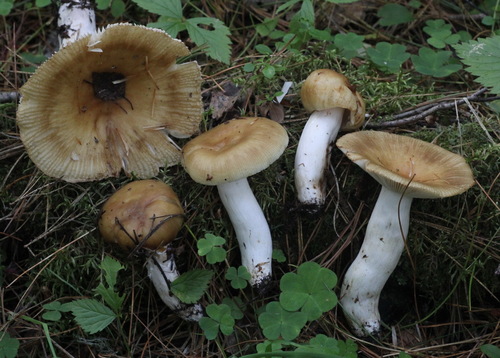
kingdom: Fungi
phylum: Basidiomycota
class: Agaricomycetes
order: Russulales
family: Russulaceae
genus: Russula
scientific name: Russula foetens
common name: Foetid russula
